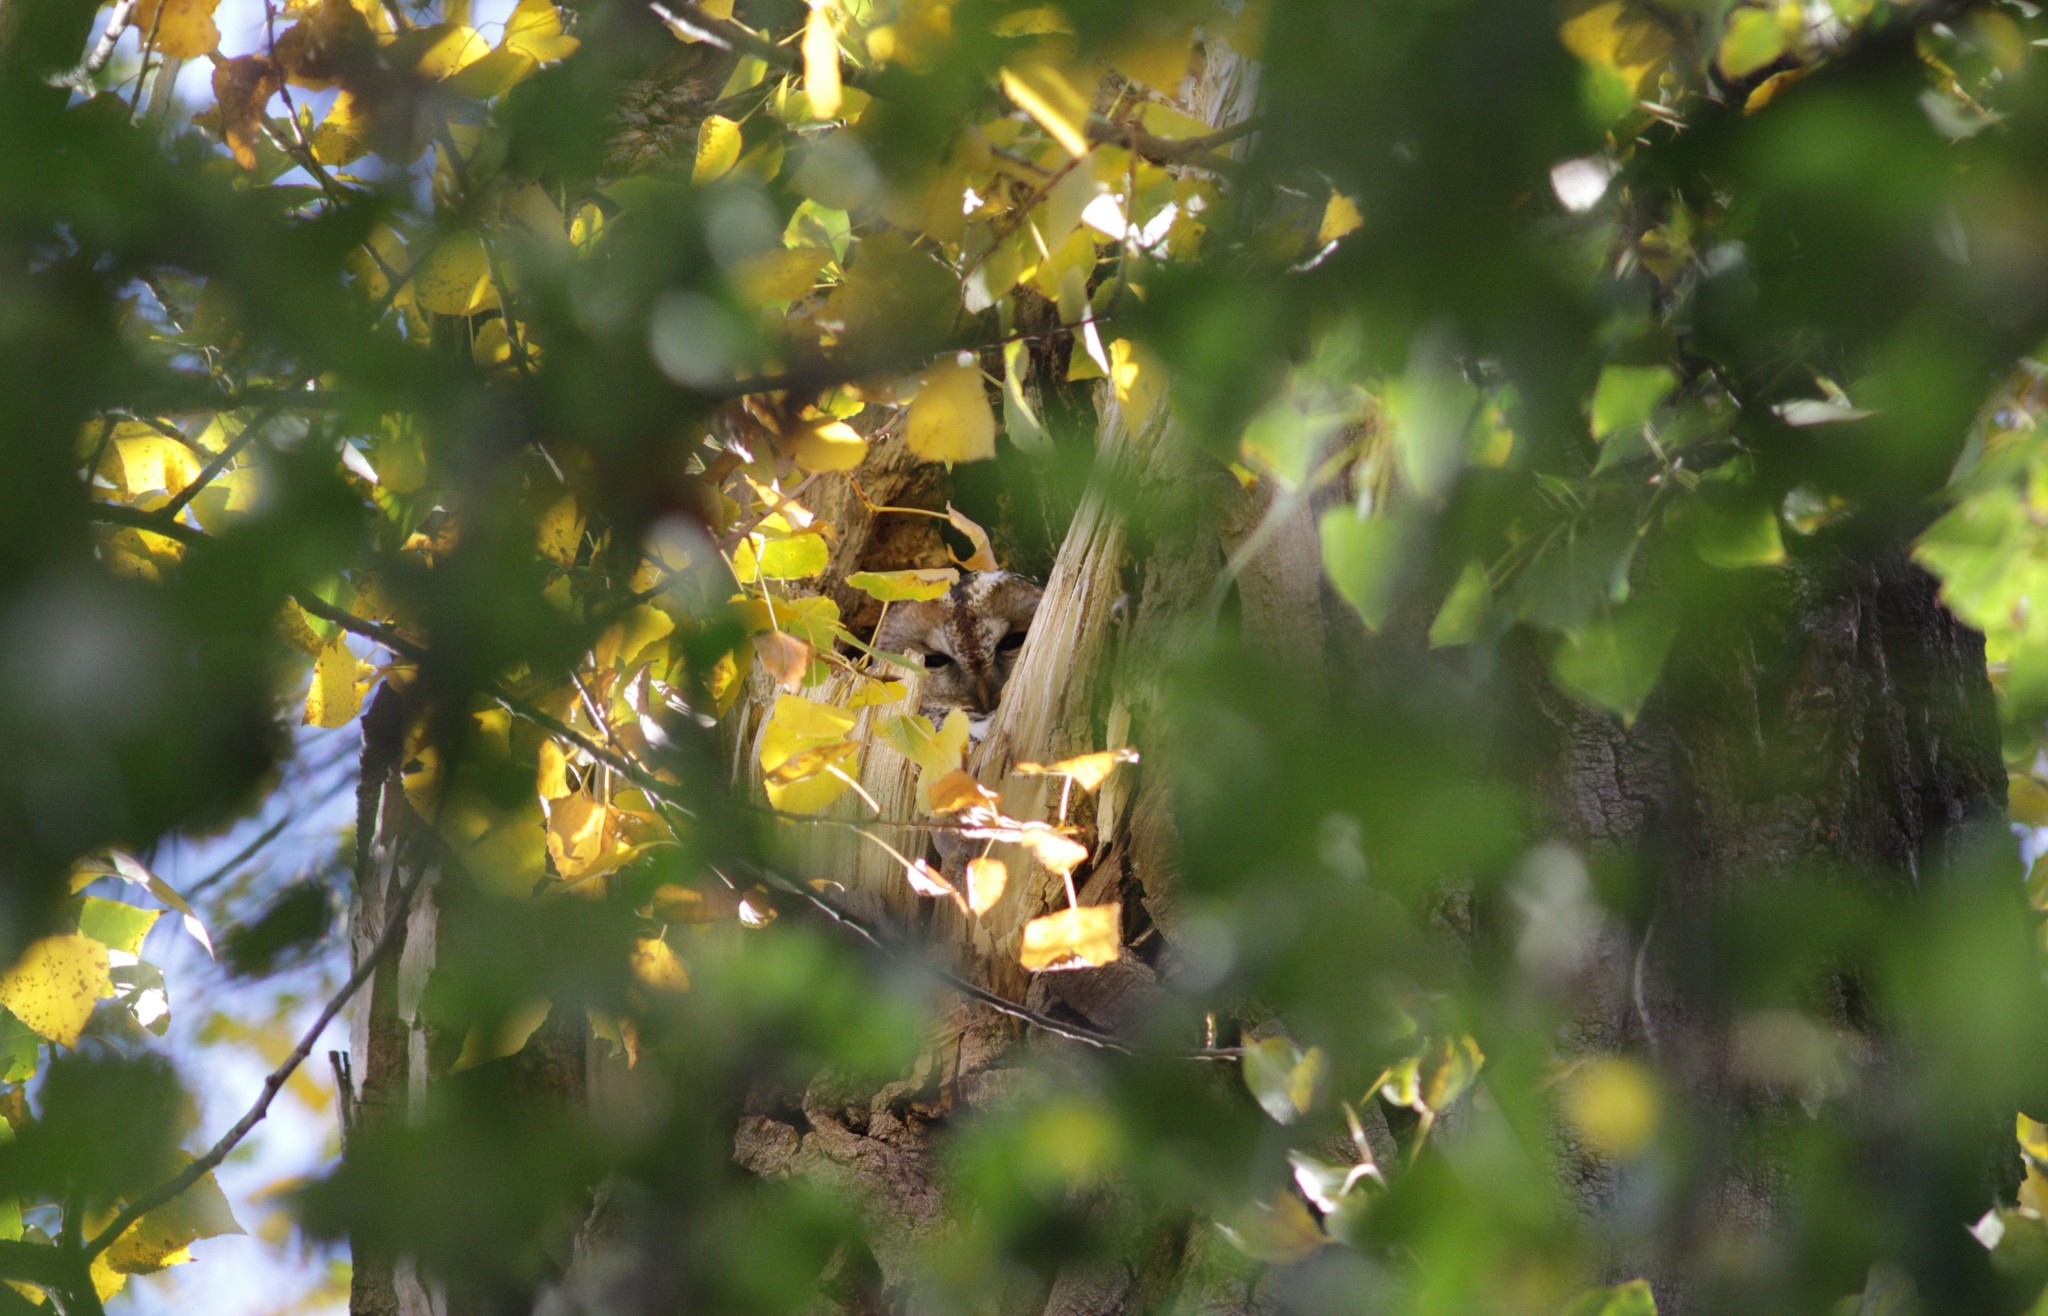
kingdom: Animalia
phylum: Chordata
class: Aves
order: Strigiformes
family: Strigidae
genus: Strix
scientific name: Strix aluco
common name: Tawny owl
